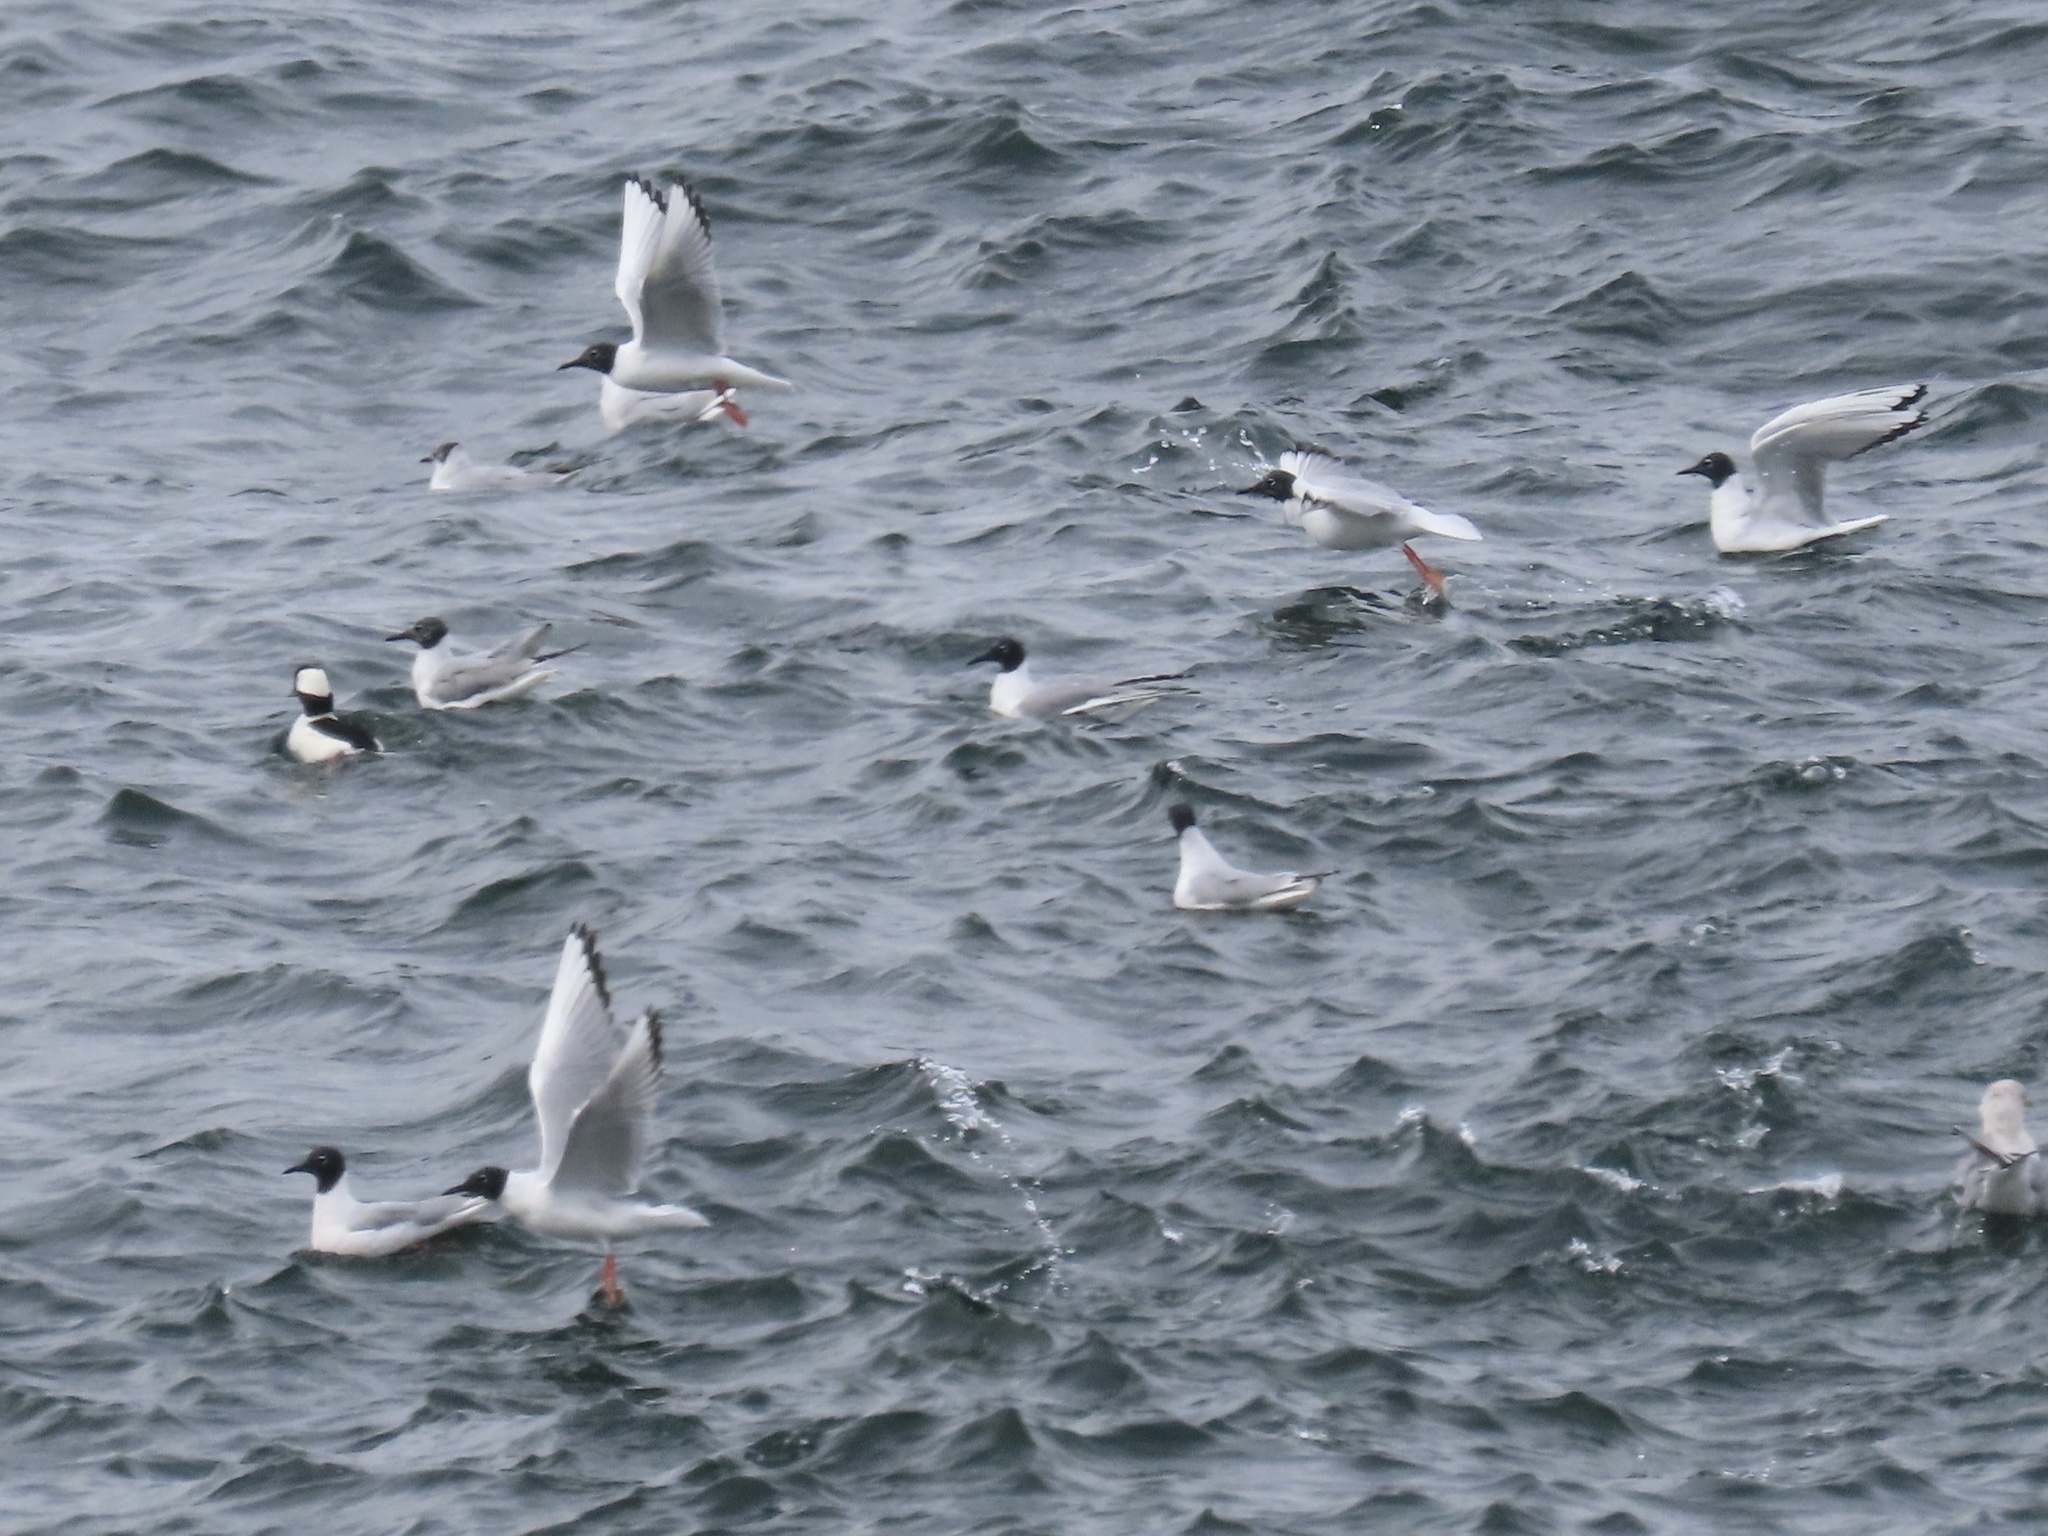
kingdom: Animalia
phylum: Chordata
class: Aves
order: Charadriiformes
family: Laridae
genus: Chroicocephalus
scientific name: Chroicocephalus philadelphia
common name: Bonaparte's gull
